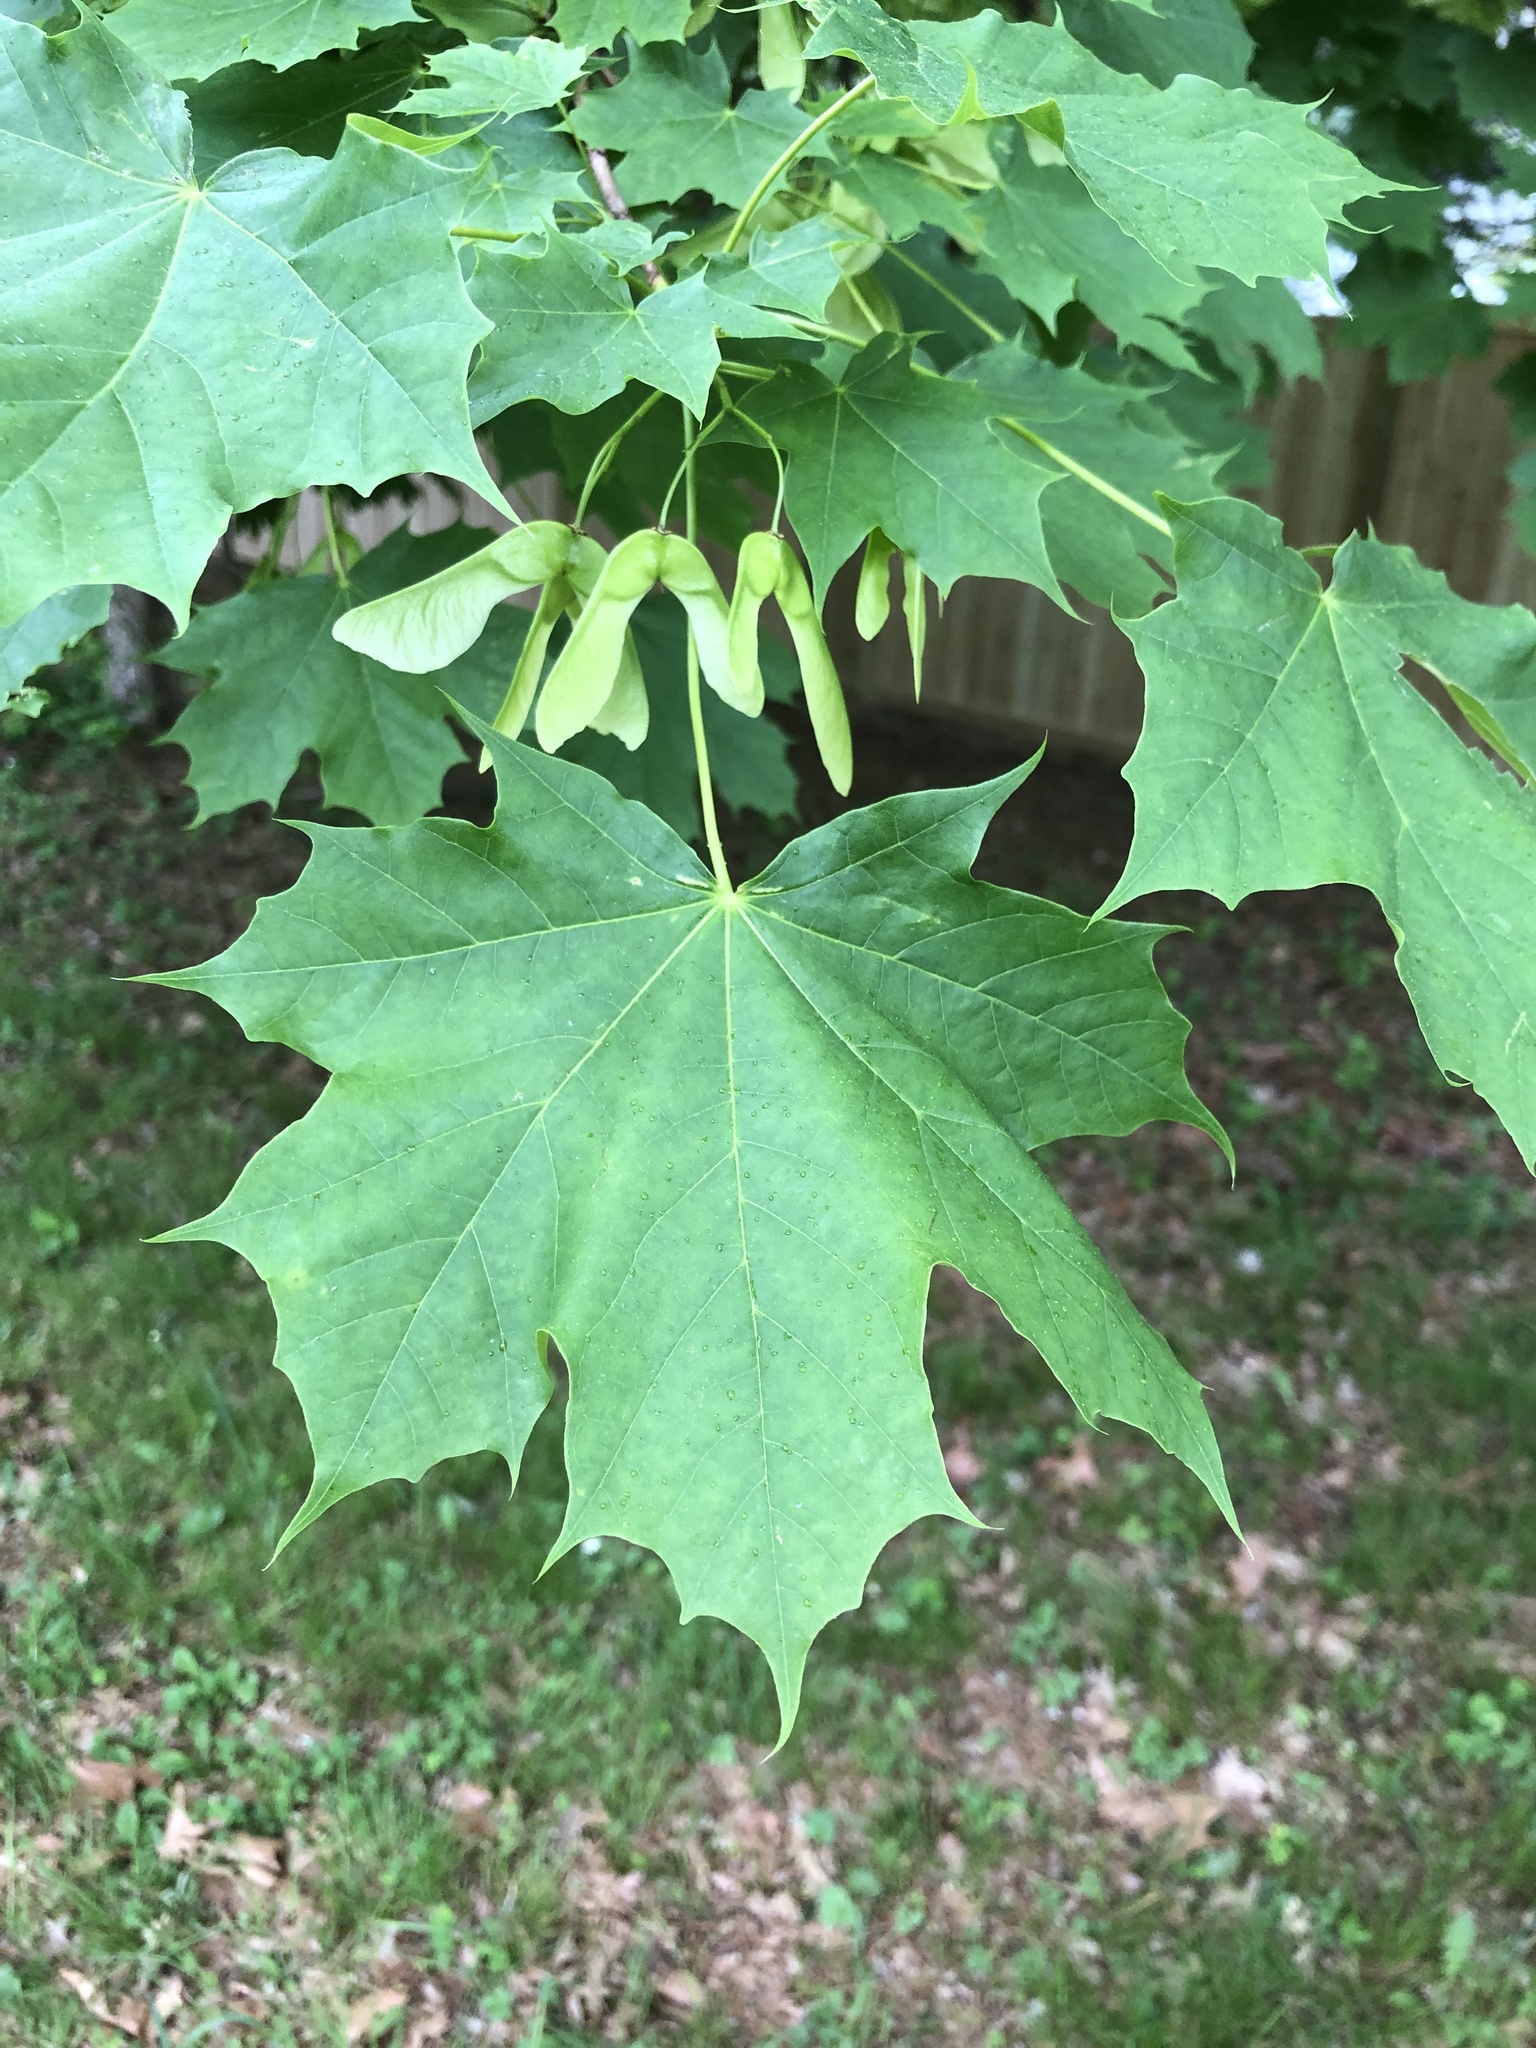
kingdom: Plantae
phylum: Tracheophyta
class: Magnoliopsida
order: Sapindales
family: Sapindaceae
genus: Acer
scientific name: Acer platanoides
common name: Norway maple
